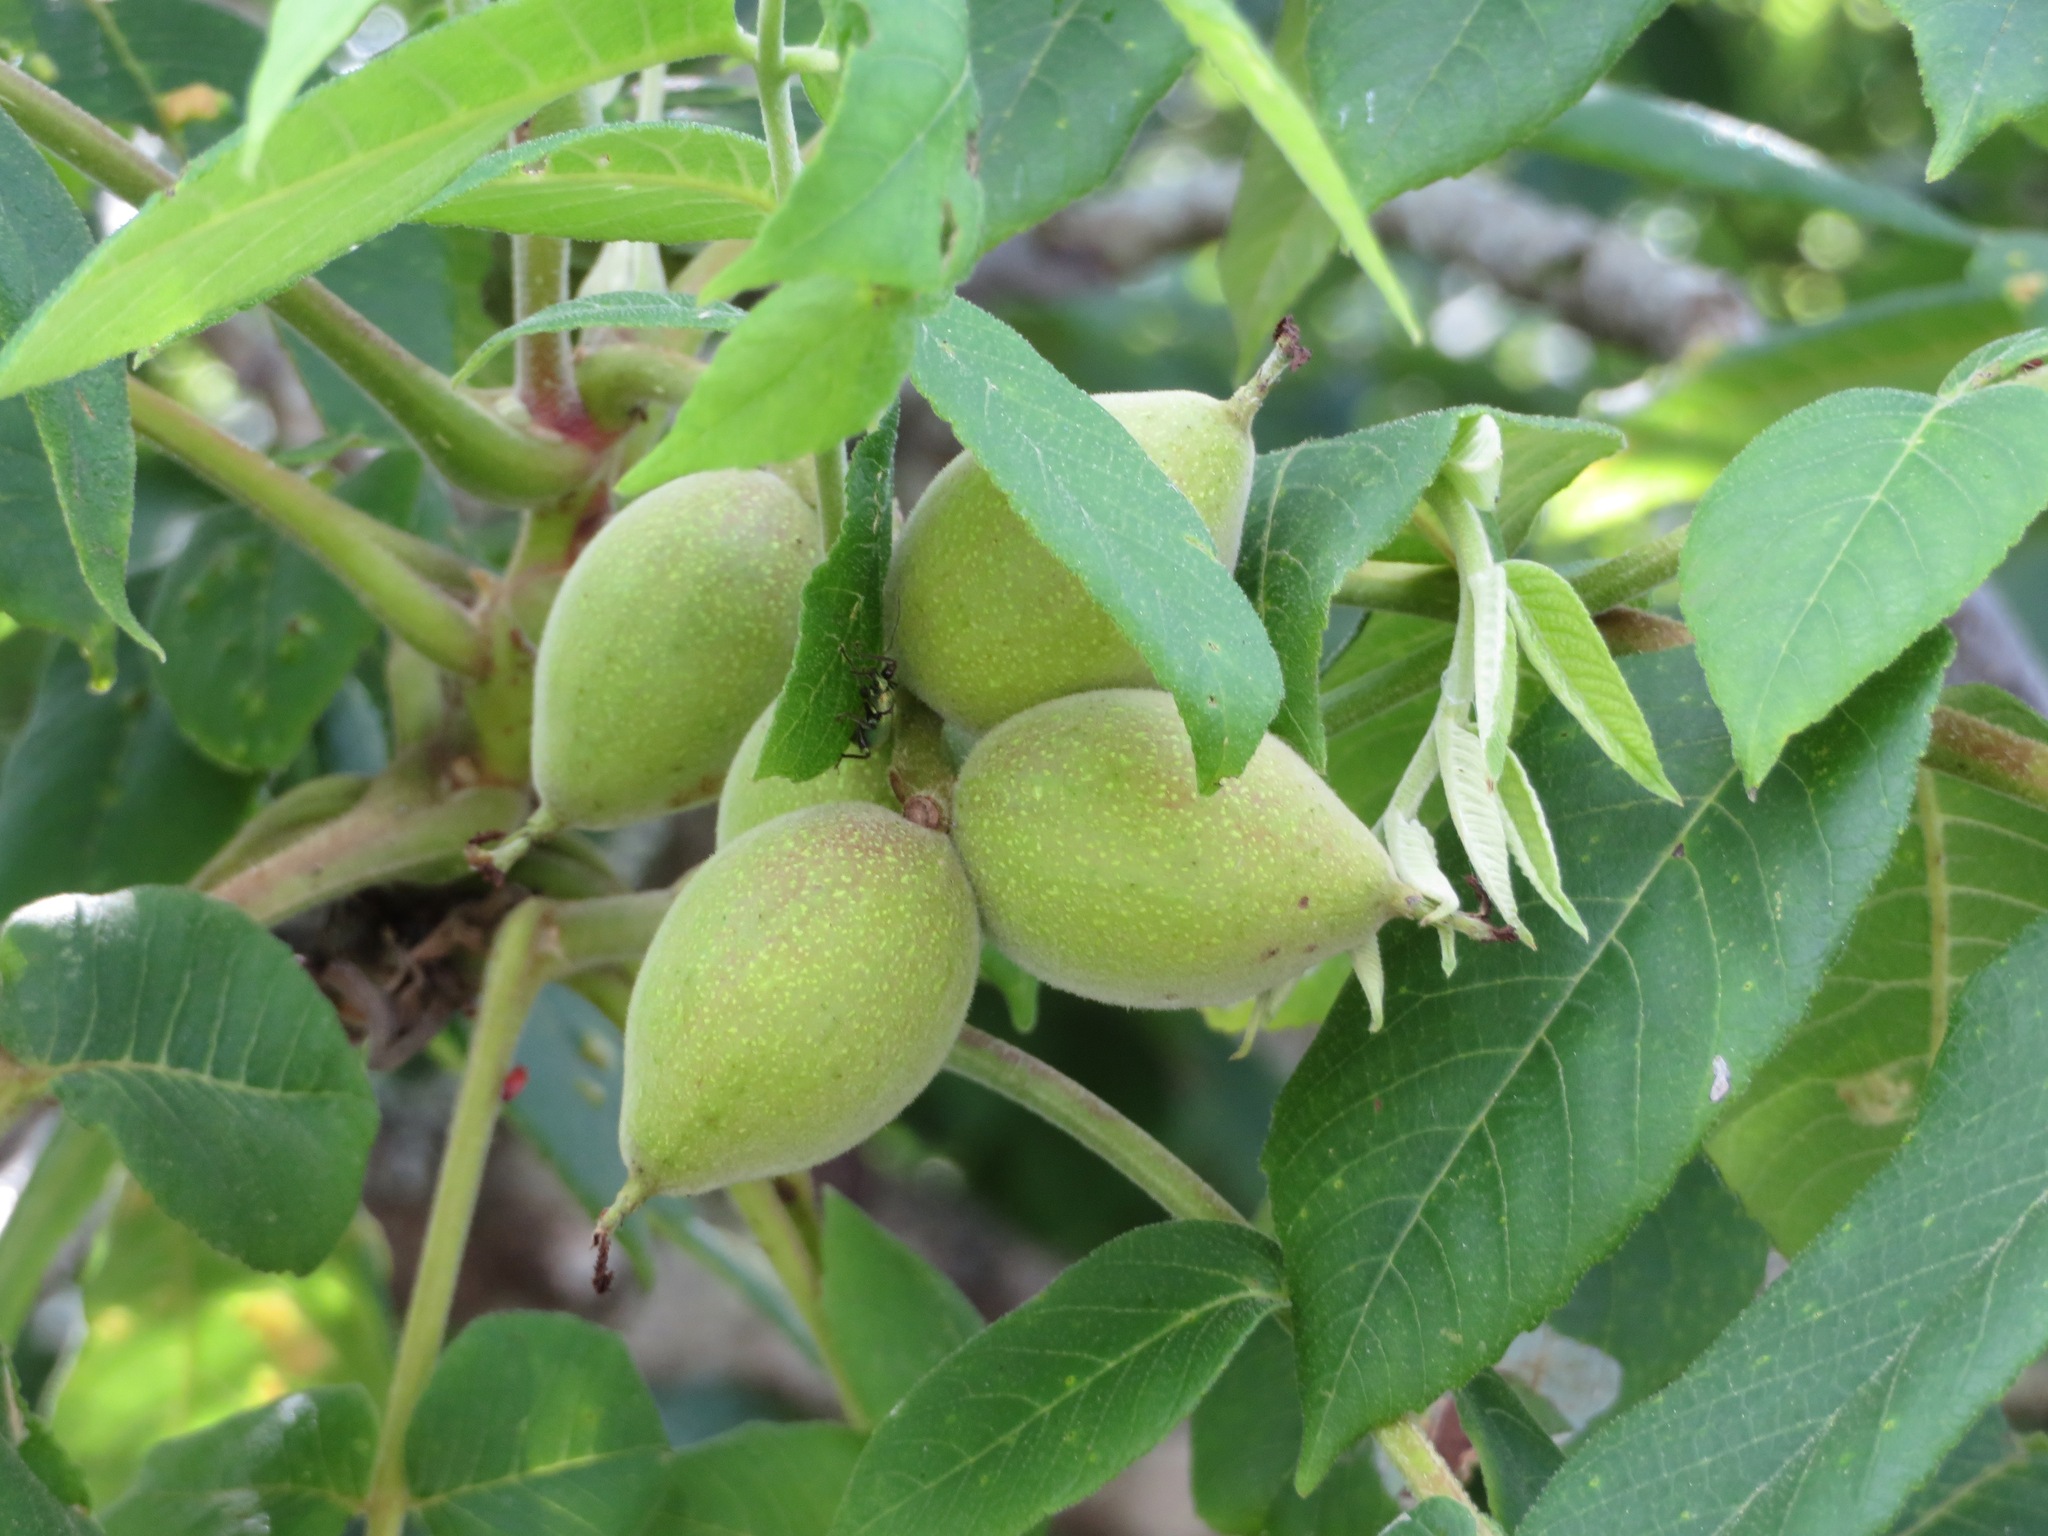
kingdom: Plantae
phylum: Tracheophyta
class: Magnoliopsida
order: Fagales
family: Juglandaceae
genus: Juglans
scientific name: Juglans ailantifolia
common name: Japanese walnut
